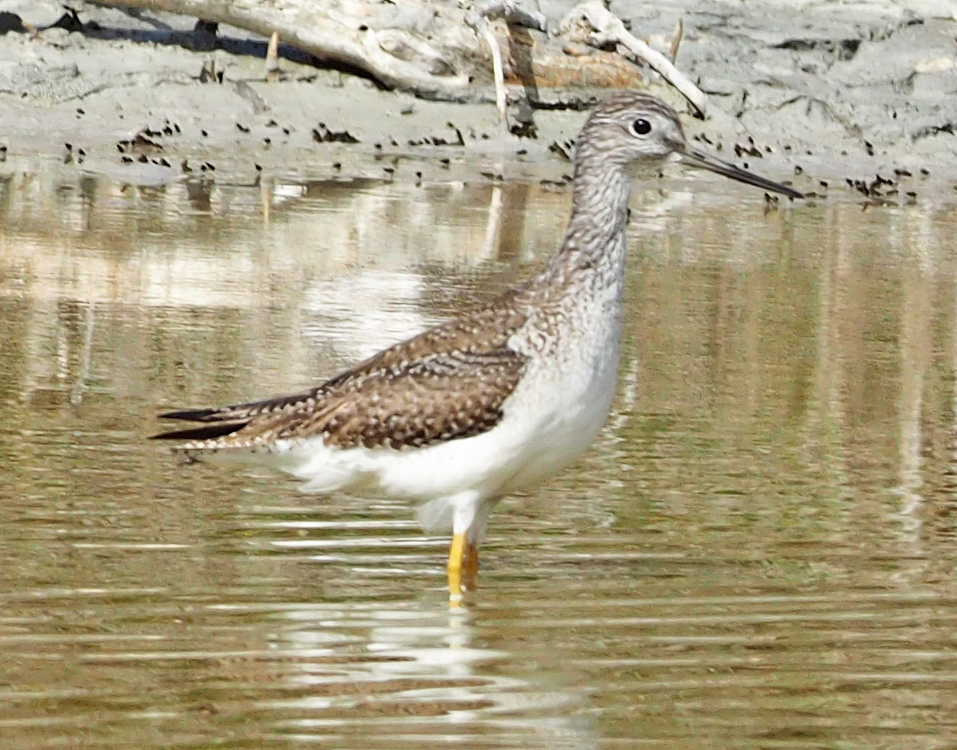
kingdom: Animalia
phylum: Chordata
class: Aves
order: Charadriiformes
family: Scolopacidae
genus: Tringa
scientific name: Tringa melanoleuca
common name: Greater yellowlegs
